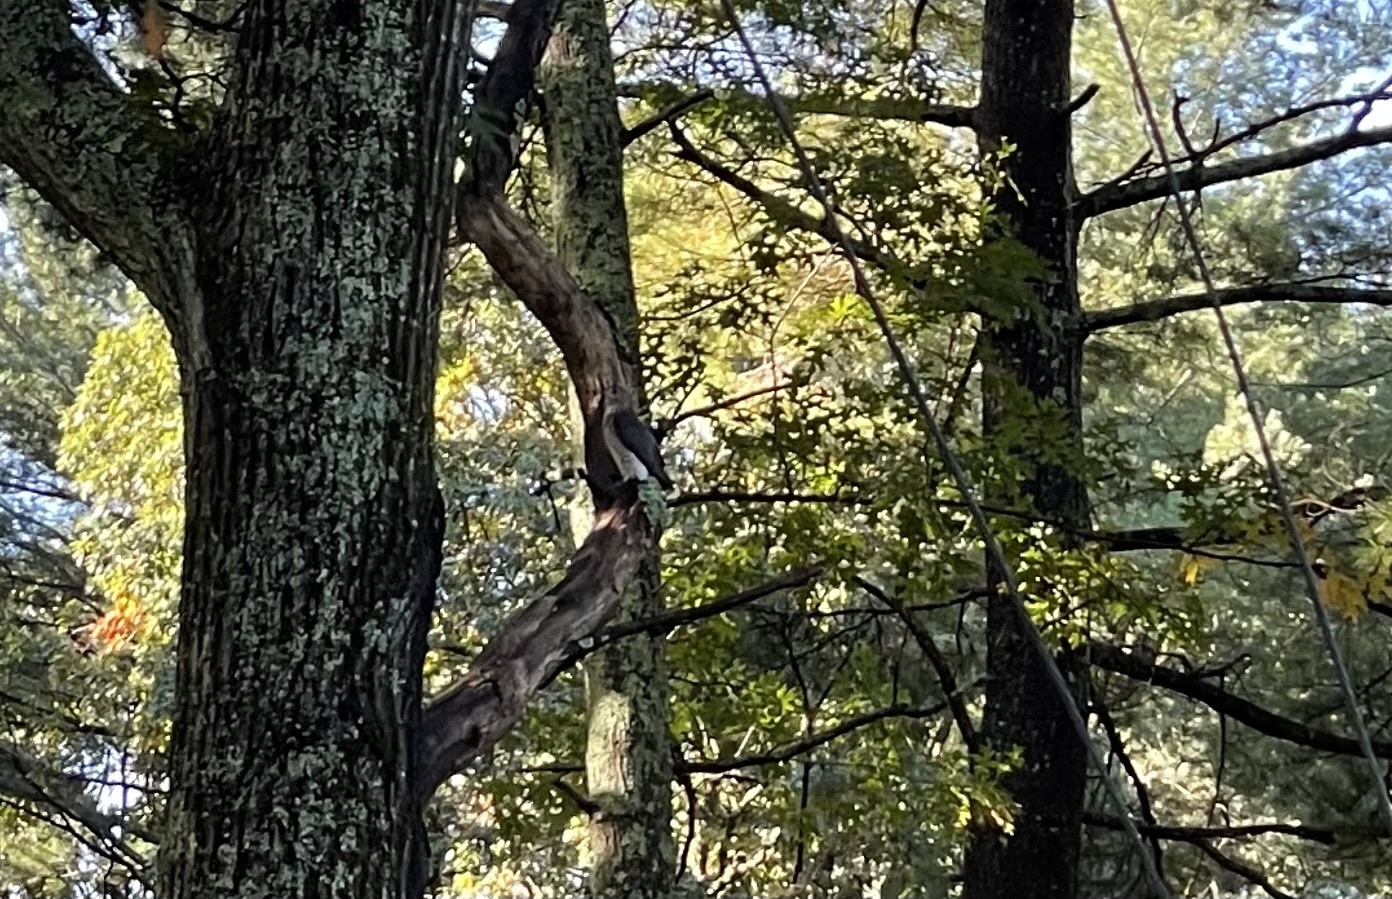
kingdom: Animalia
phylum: Chordata
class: Aves
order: Accipitriformes
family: Accipitridae
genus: Accipiter
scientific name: Accipiter cooperii
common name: Cooper's hawk
